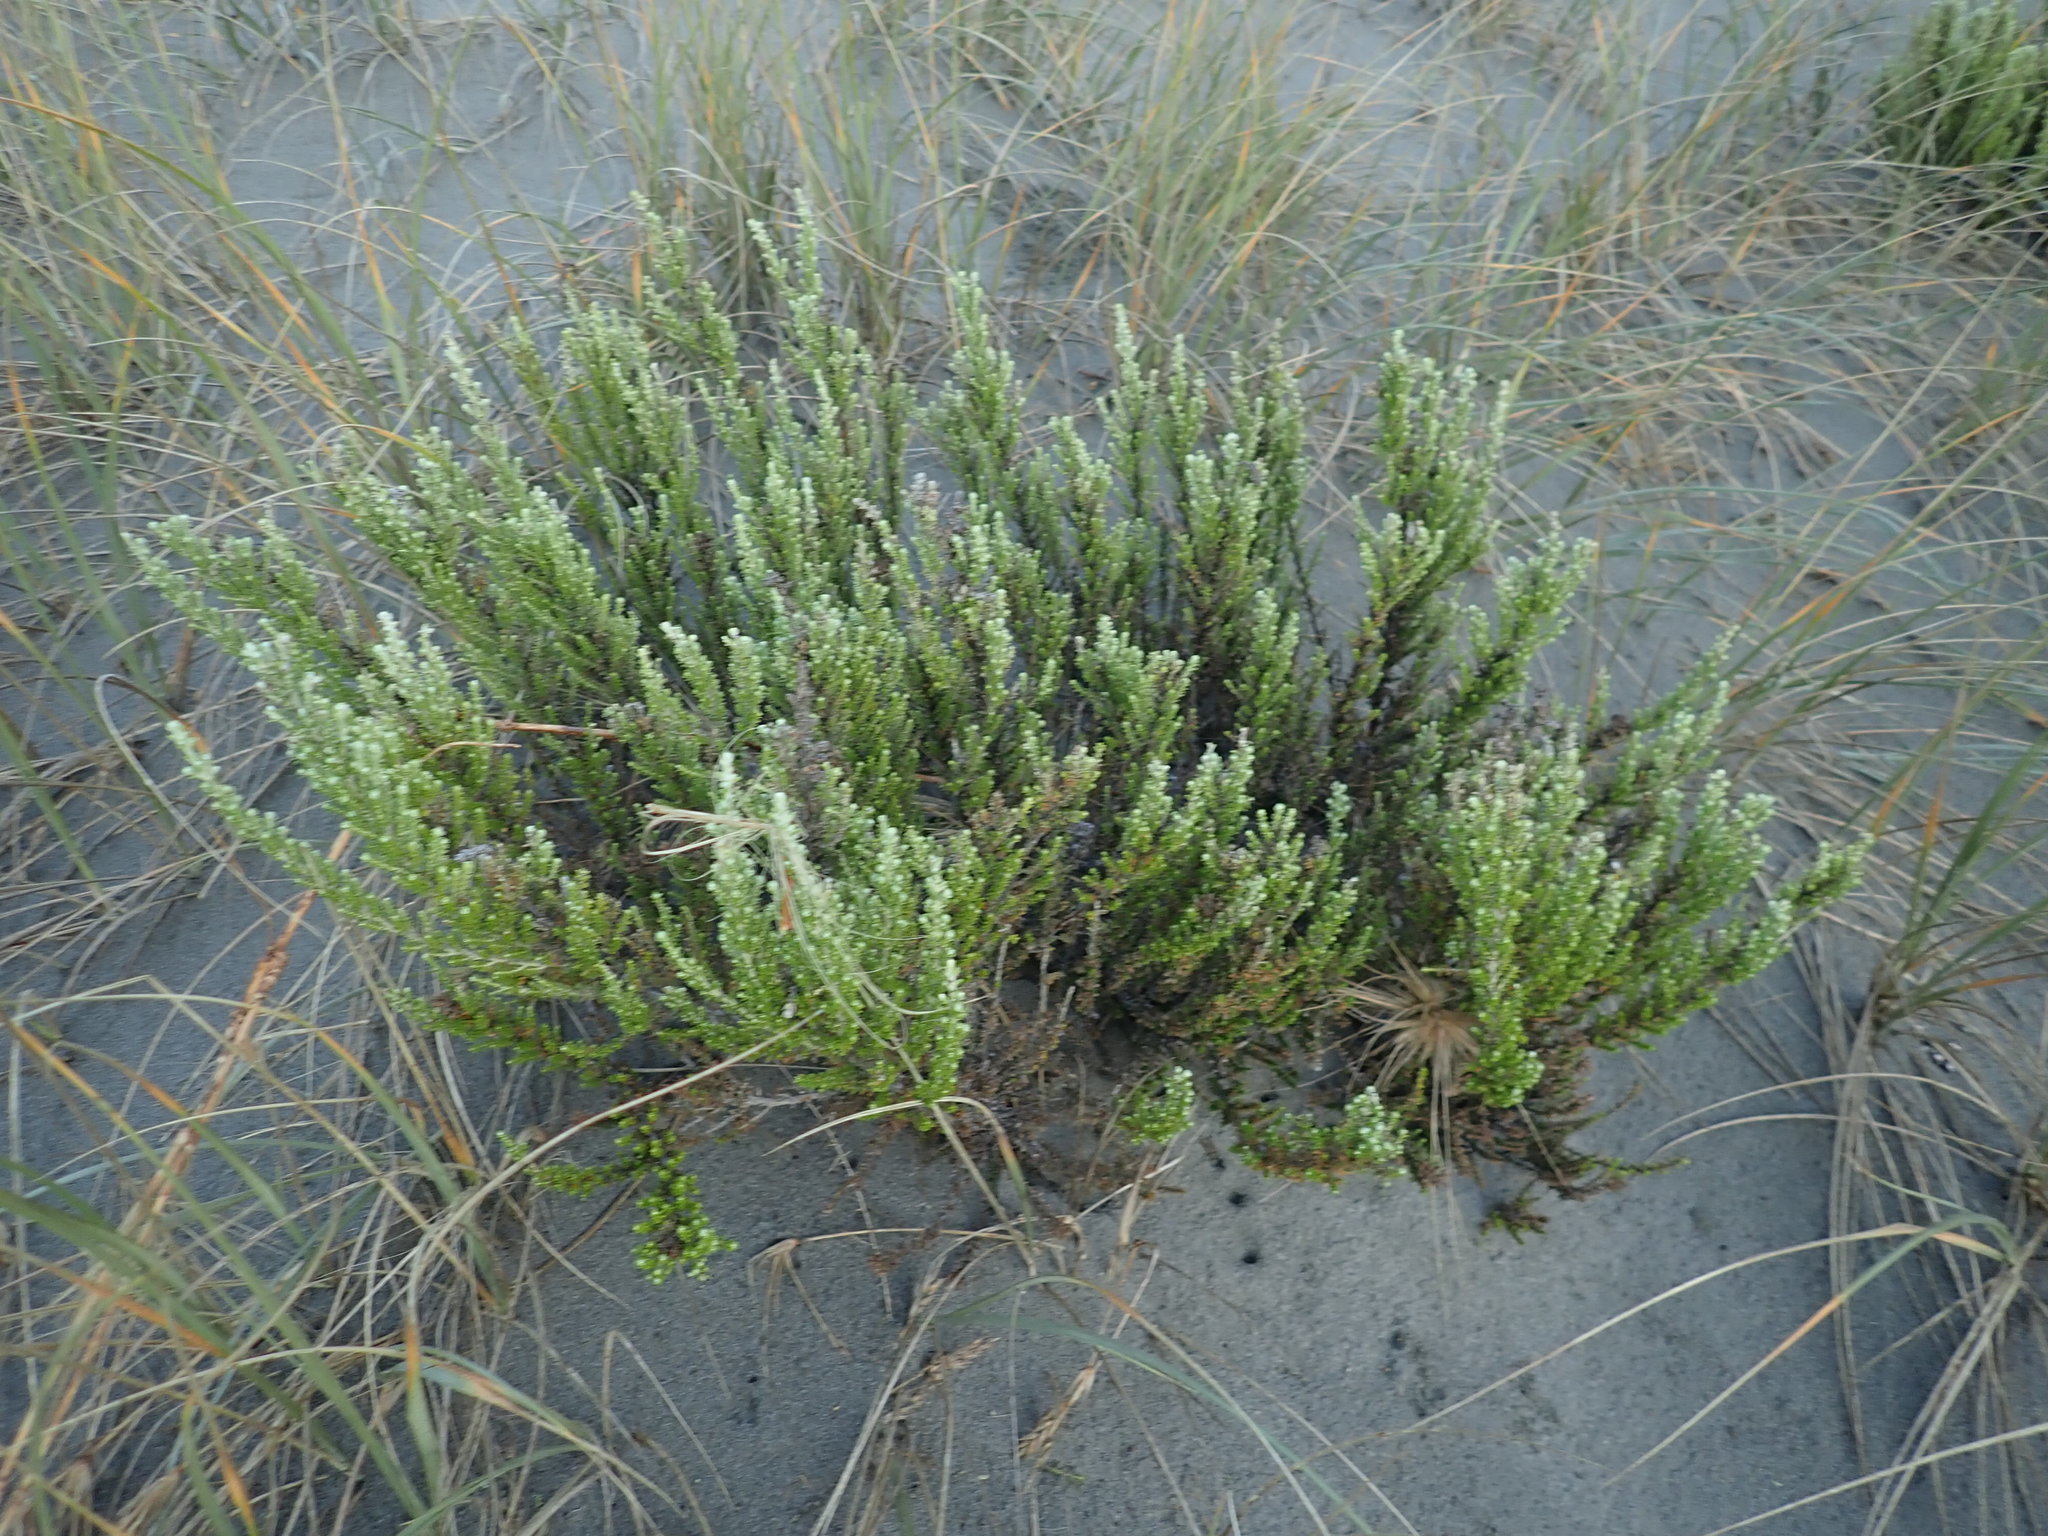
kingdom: Plantae
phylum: Tracheophyta
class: Magnoliopsida
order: Asterales
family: Asteraceae
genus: Ozothamnus
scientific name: Ozothamnus leptophyllus
